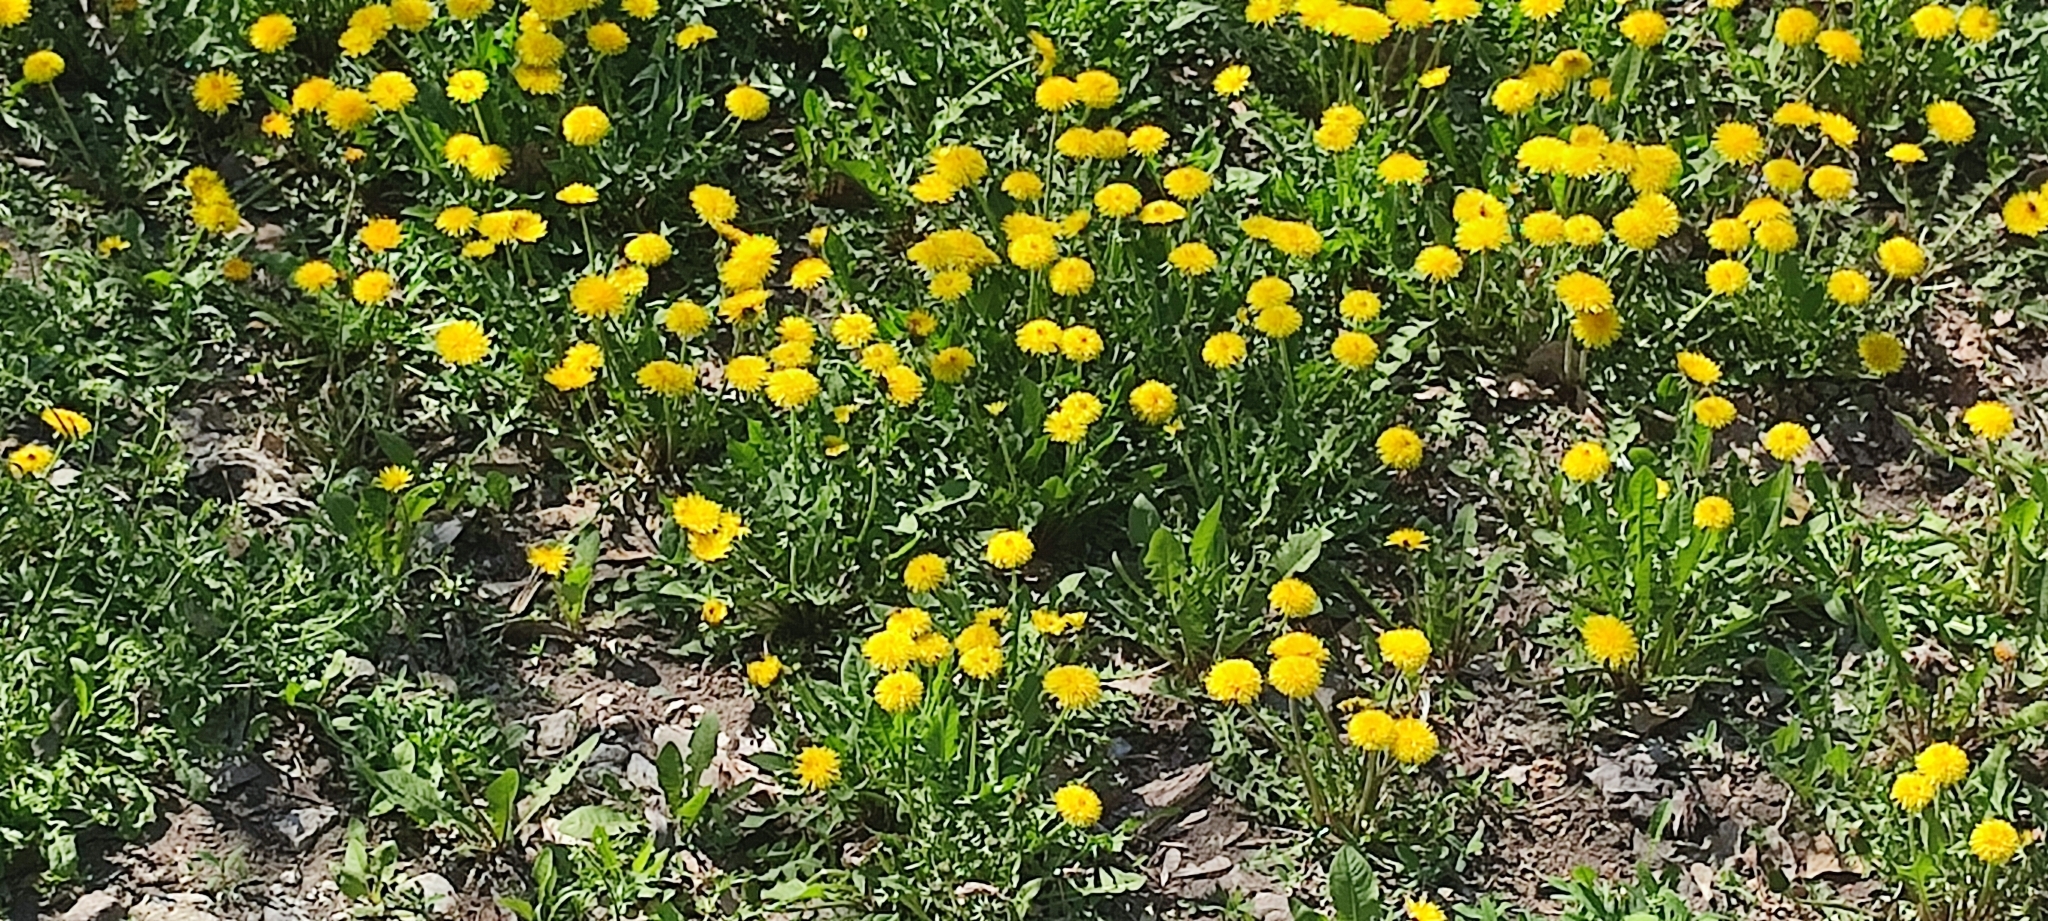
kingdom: Plantae
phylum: Tracheophyta
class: Magnoliopsida
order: Asterales
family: Asteraceae
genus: Taraxacum
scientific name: Taraxacum officinale
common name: Common dandelion
